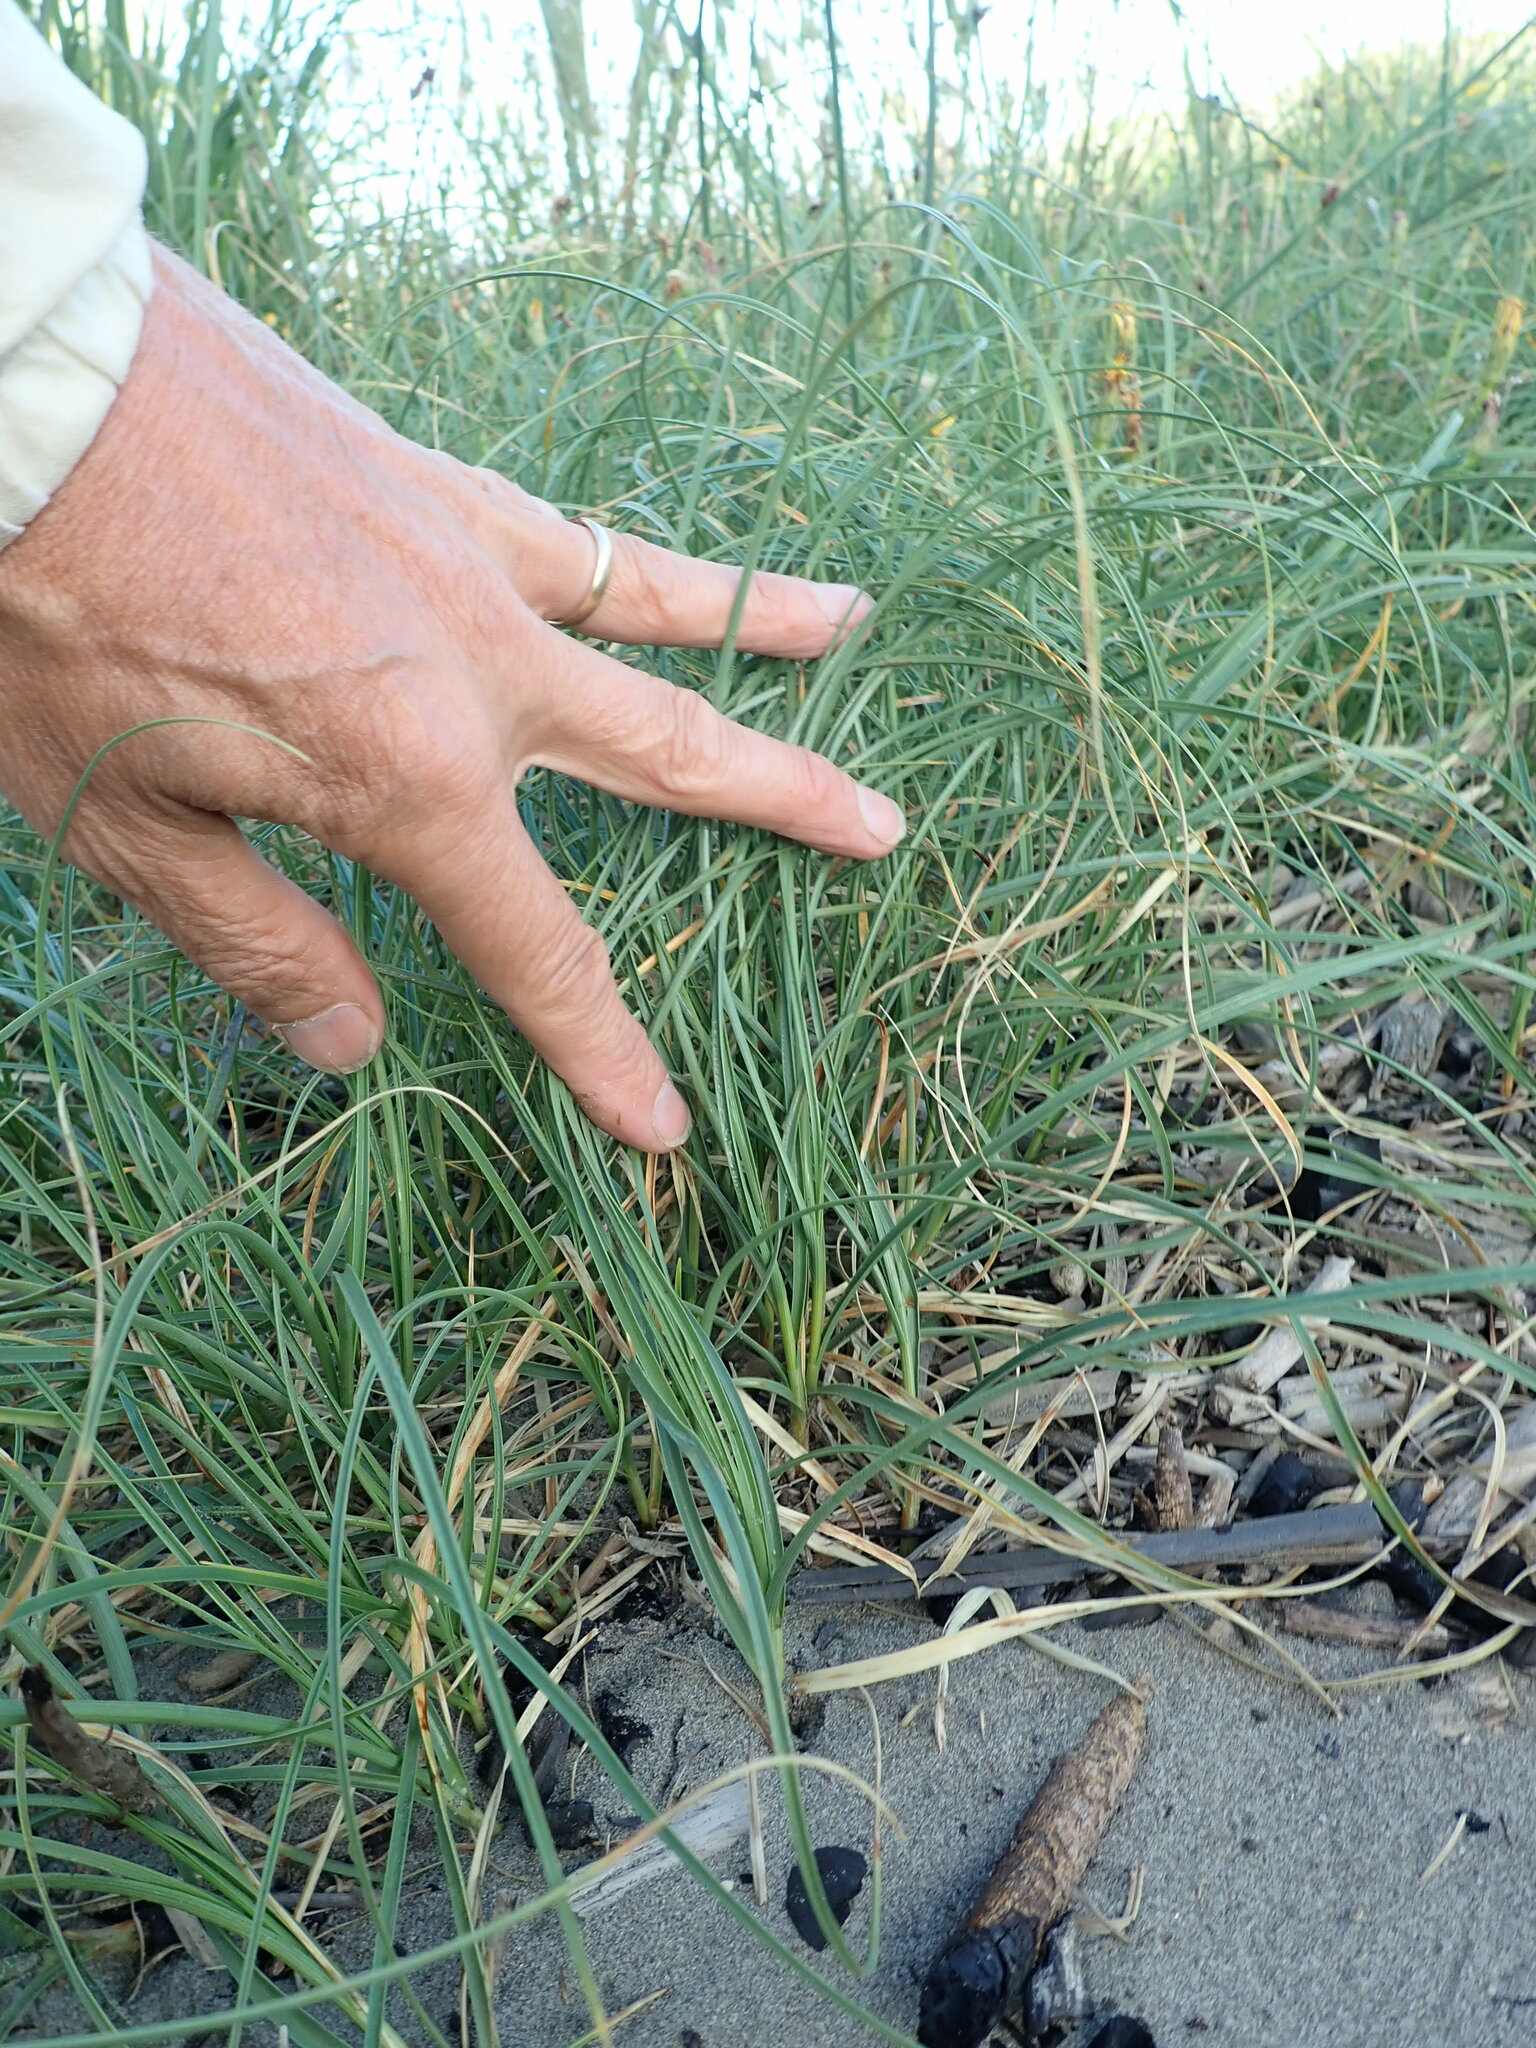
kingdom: Plantae
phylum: Tracheophyta
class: Liliopsida
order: Poales
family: Cyperaceae
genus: Carex
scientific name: Carex pumila
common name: Dwarf sedge
